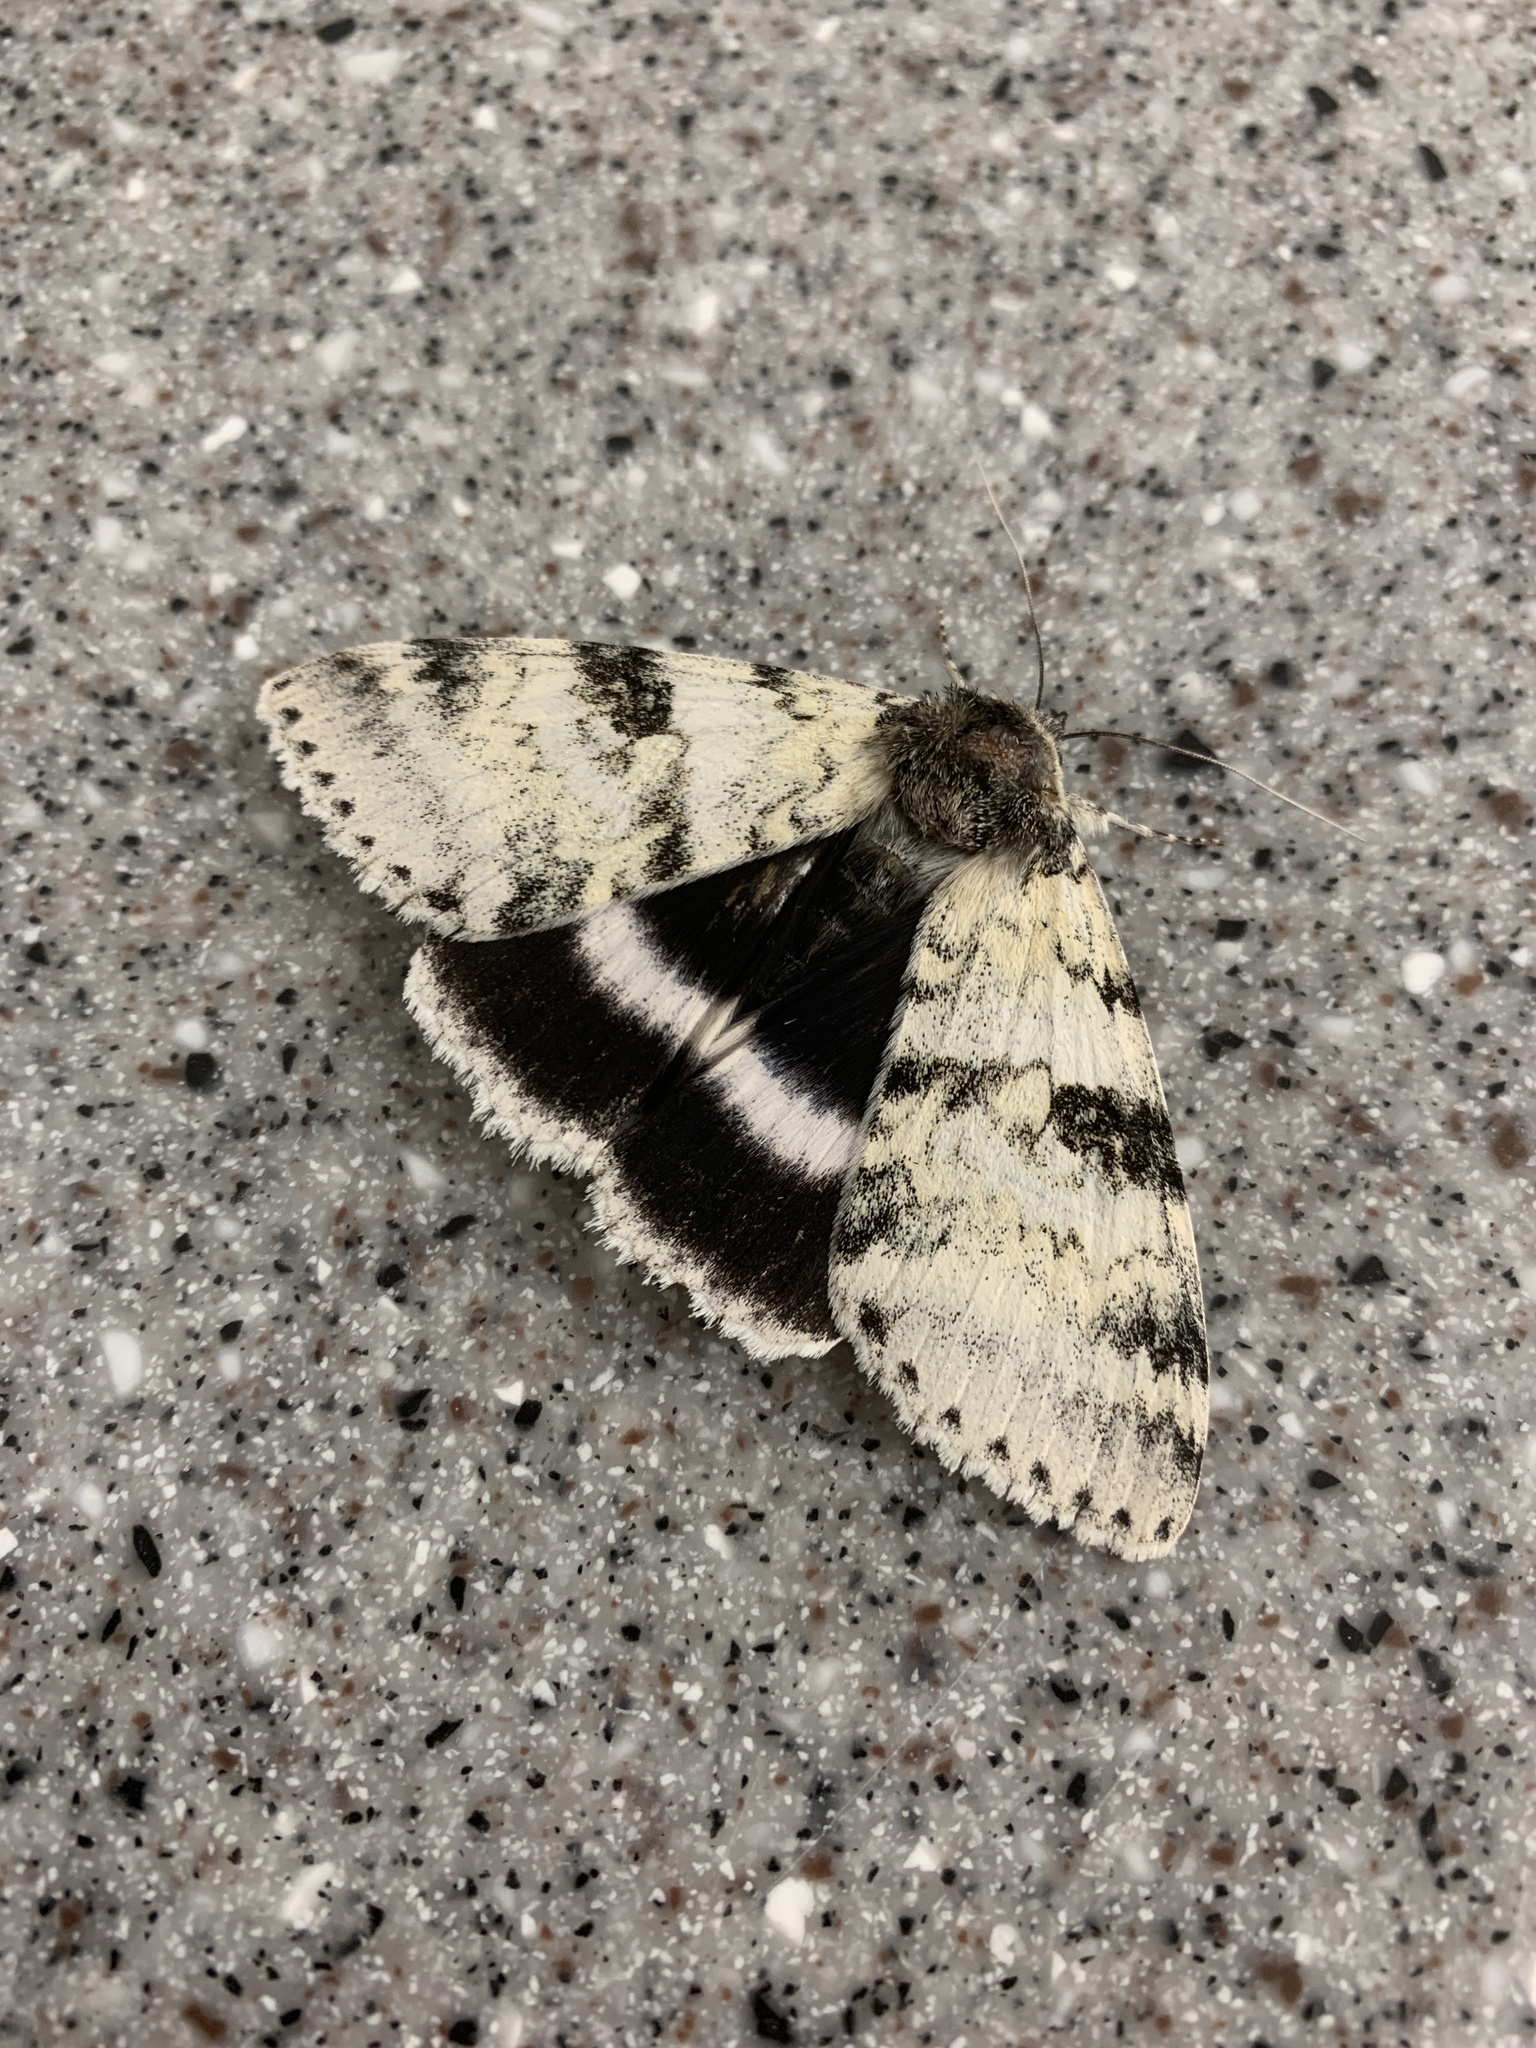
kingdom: Animalia
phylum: Arthropoda
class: Insecta
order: Lepidoptera
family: Erebidae
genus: Catocala
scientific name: Catocala relicta
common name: White underwing
